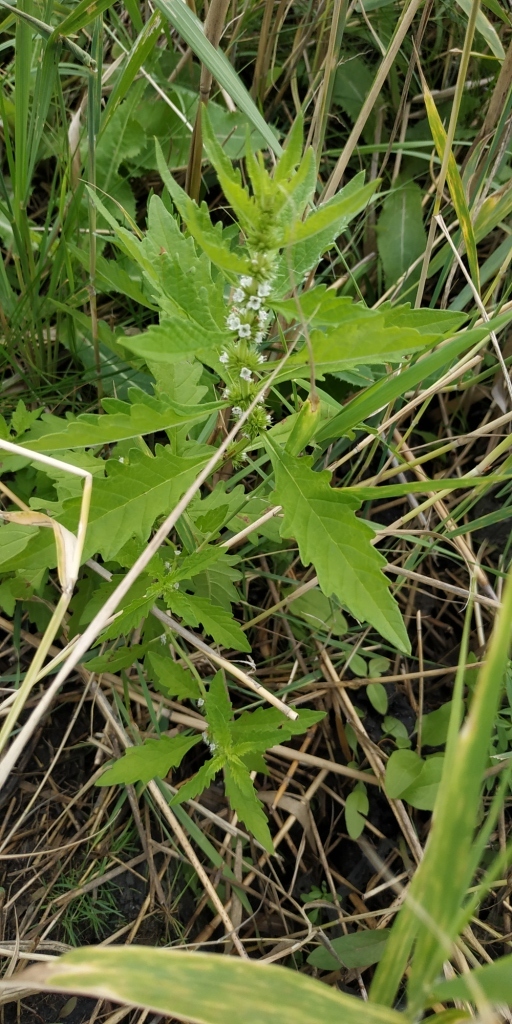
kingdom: Plantae
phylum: Tracheophyta
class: Magnoliopsida
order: Lamiales
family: Lamiaceae
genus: Lycopus
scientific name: Lycopus europaeus
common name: European bugleweed
